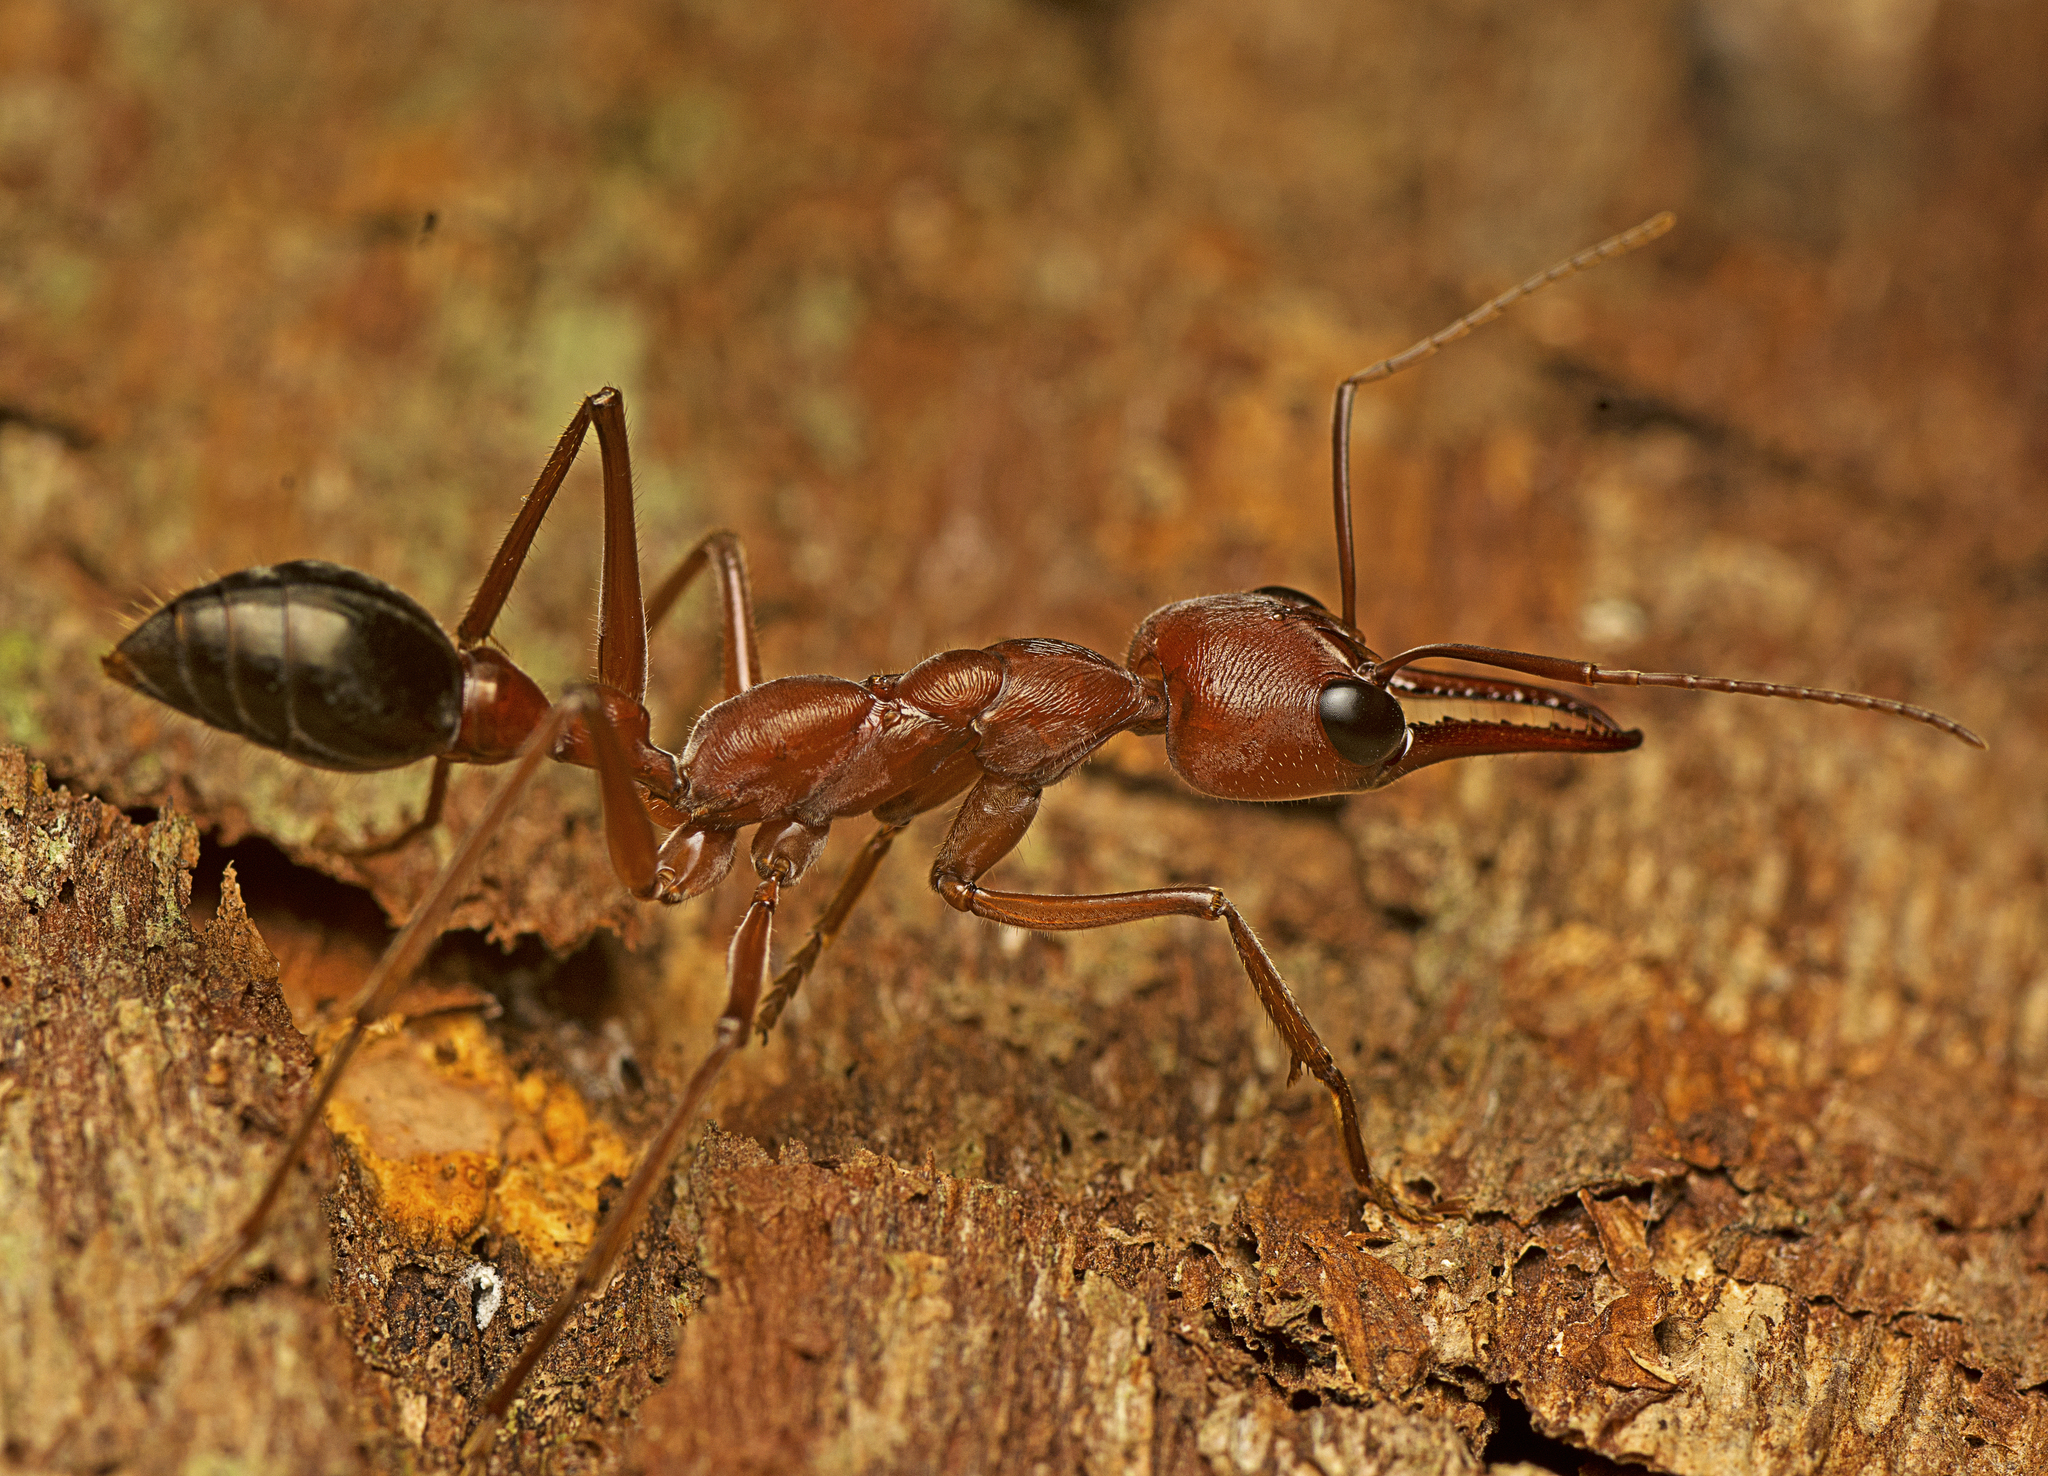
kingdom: Animalia
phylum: Arthropoda
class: Insecta
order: Hymenoptera
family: Formicidae
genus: Myrmecia
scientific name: Myrmecia brevinoda
